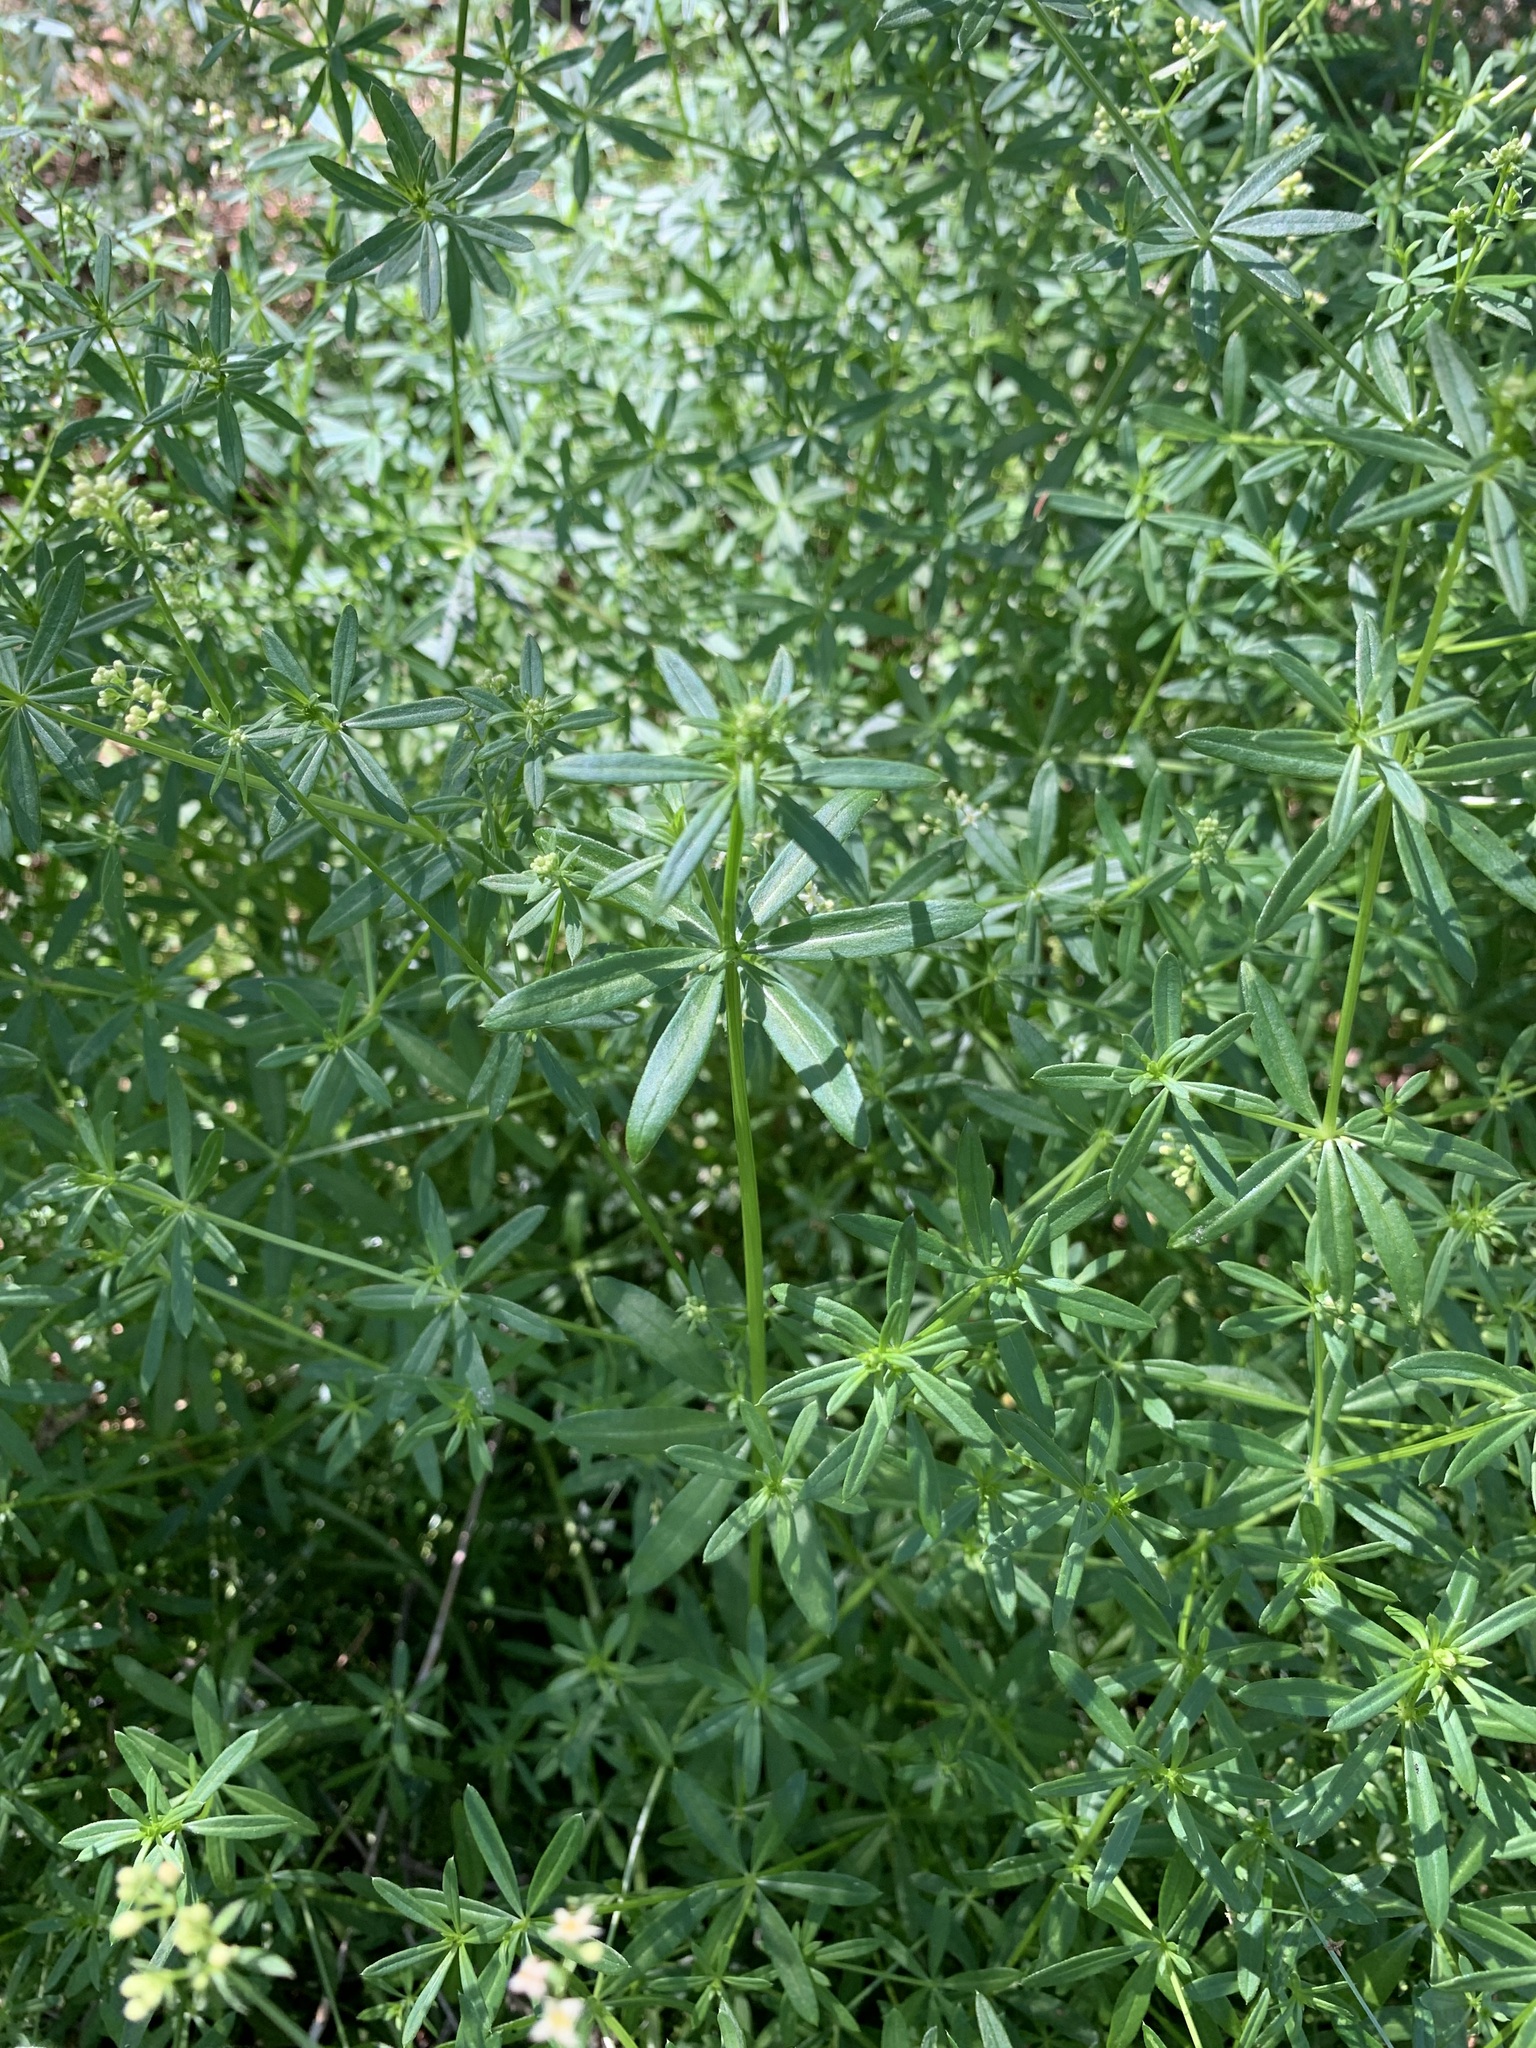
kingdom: Plantae
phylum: Tracheophyta
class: Magnoliopsida
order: Gentianales
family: Rubiaceae
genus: Galium
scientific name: Galium mollugo
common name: Hedge bedstraw
